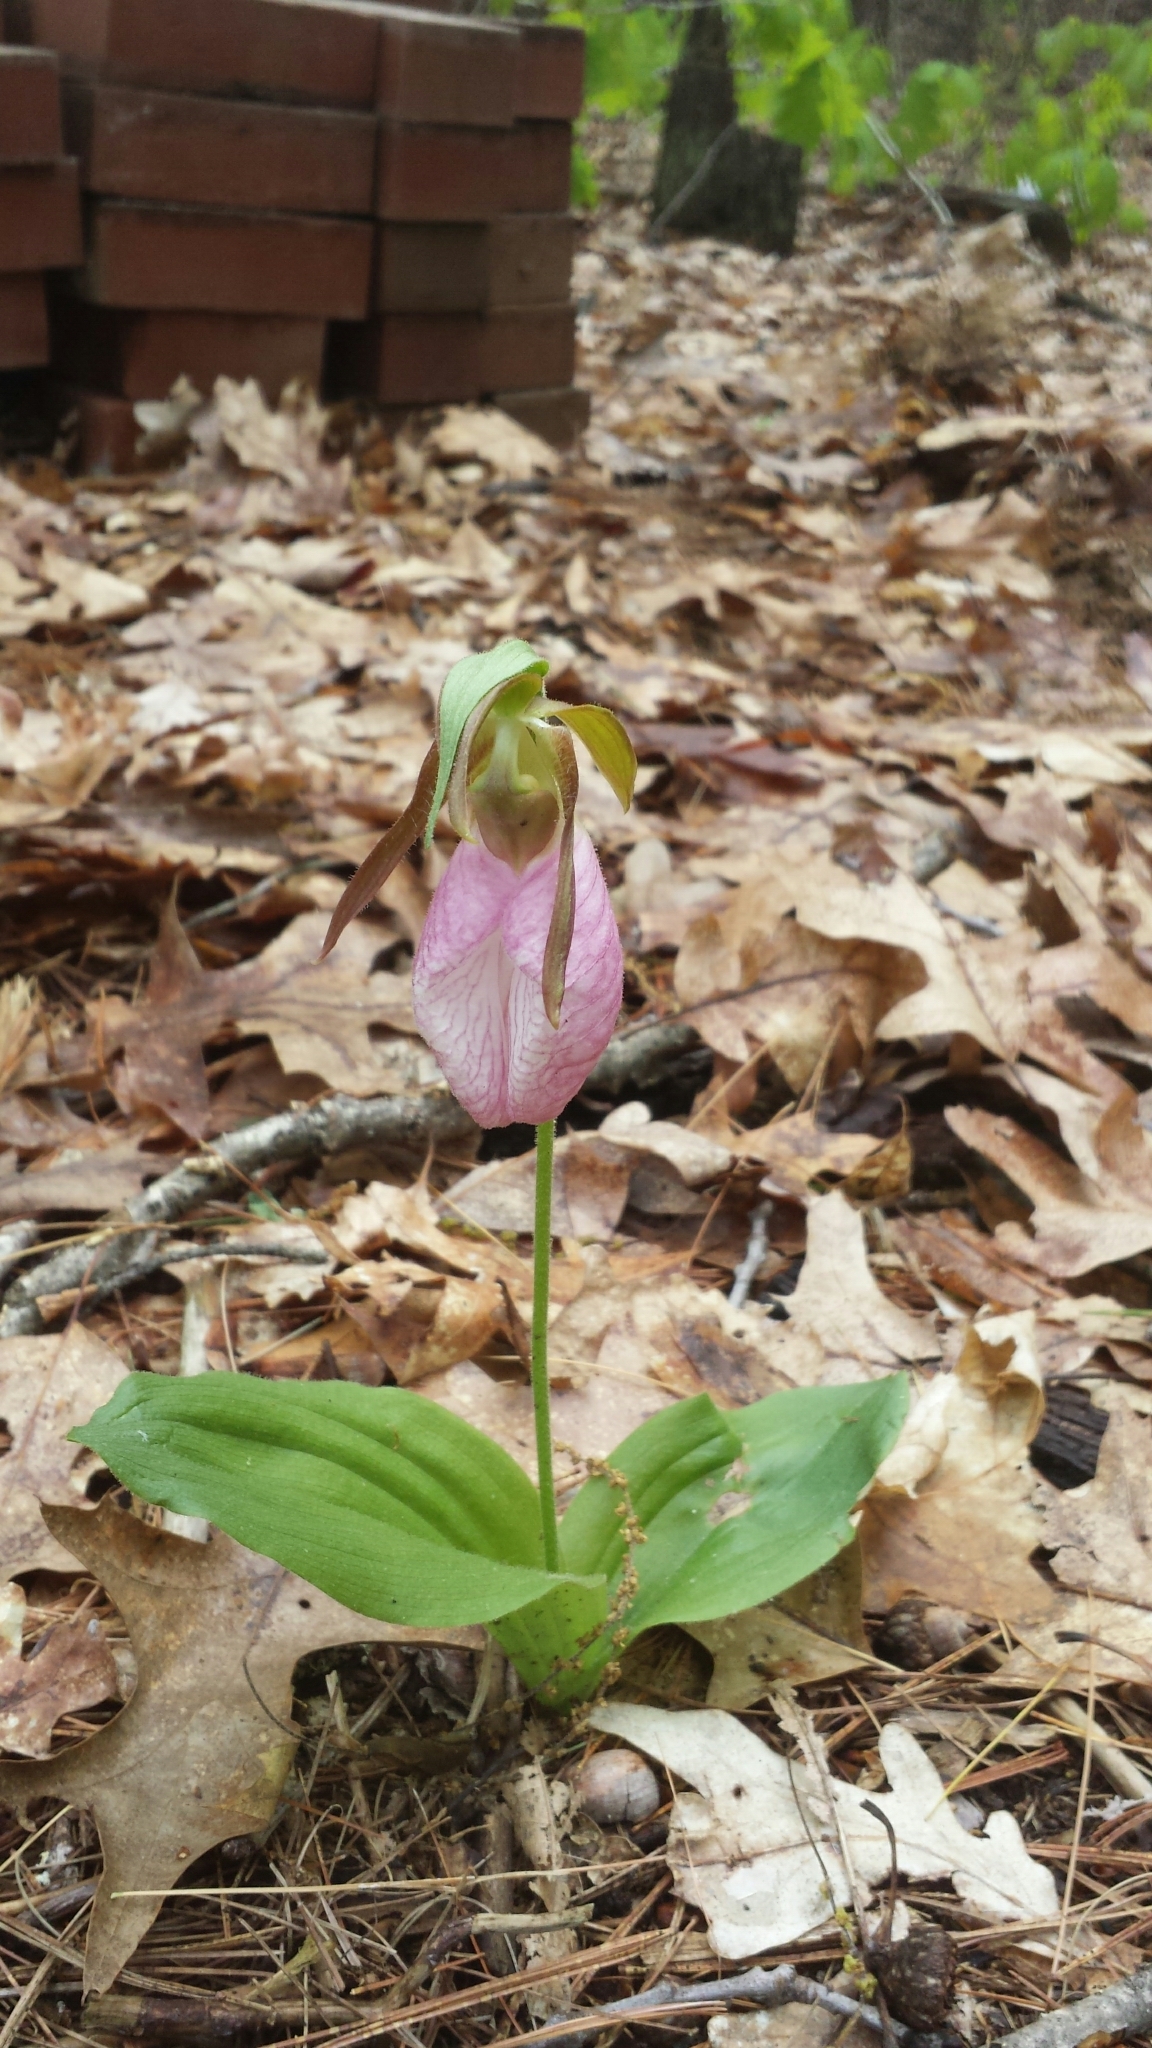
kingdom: Plantae
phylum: Tracheophyta
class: Liliopsida
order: Asparagales
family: Orchidaceae
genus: Cypripedium
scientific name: Cypripedium acaule
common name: Pink lady's-slipper
